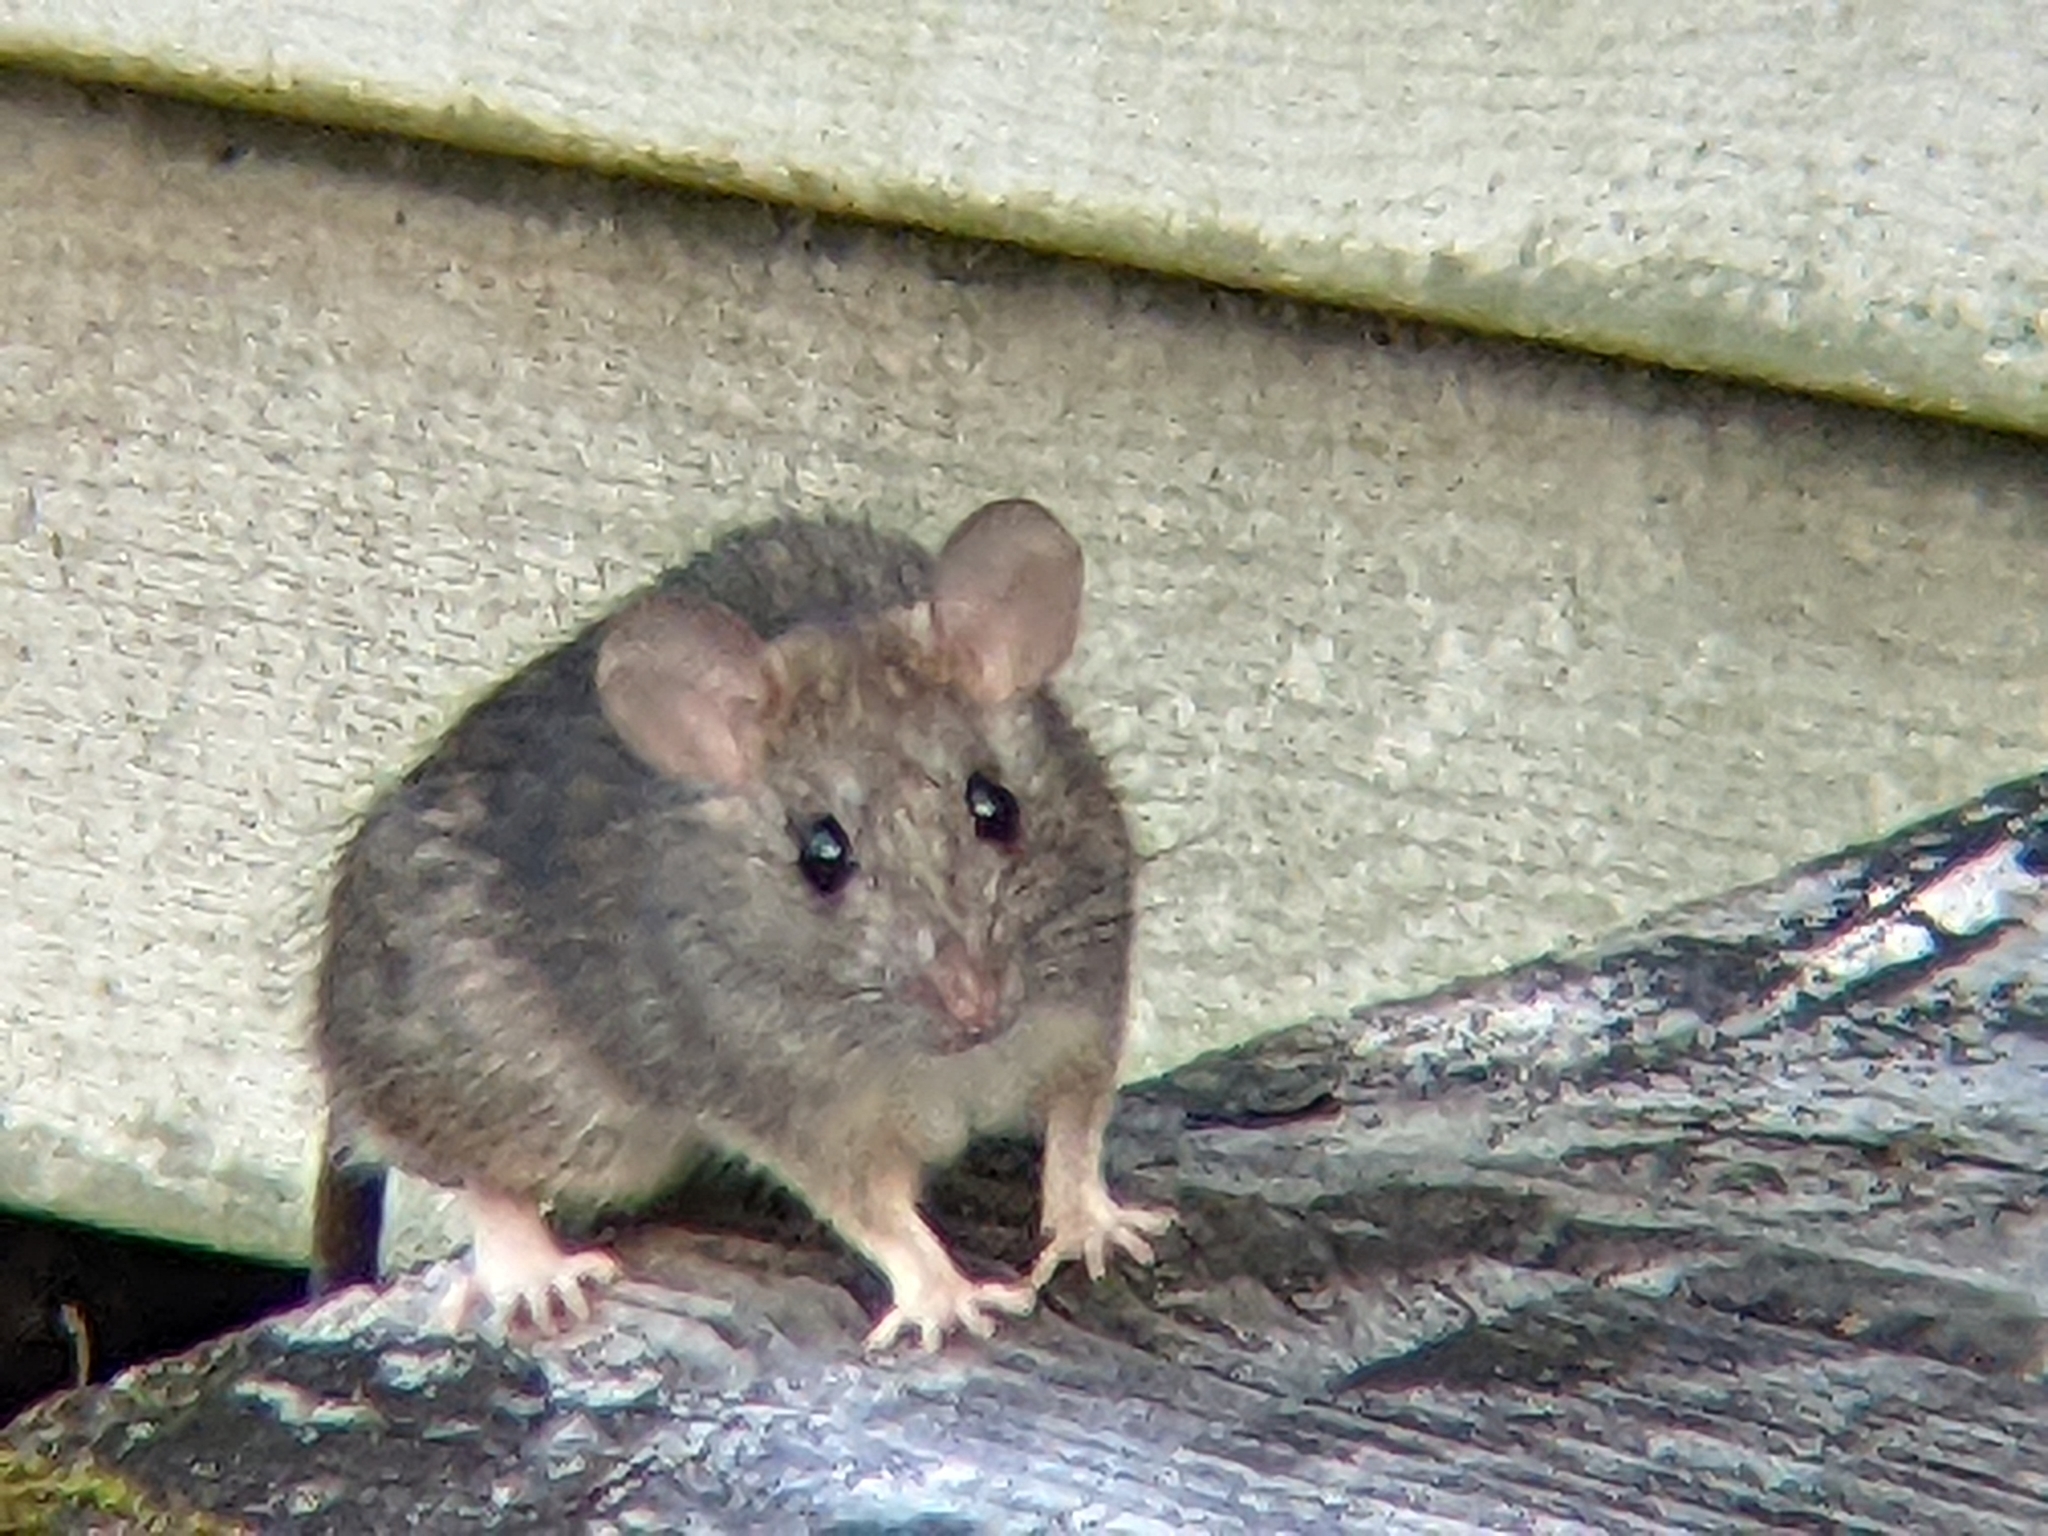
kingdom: Animalia
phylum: Chordata
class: Mammalia
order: Rodentia
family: Muridae
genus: Rattus
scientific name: Rattus rattus
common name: Black rat
